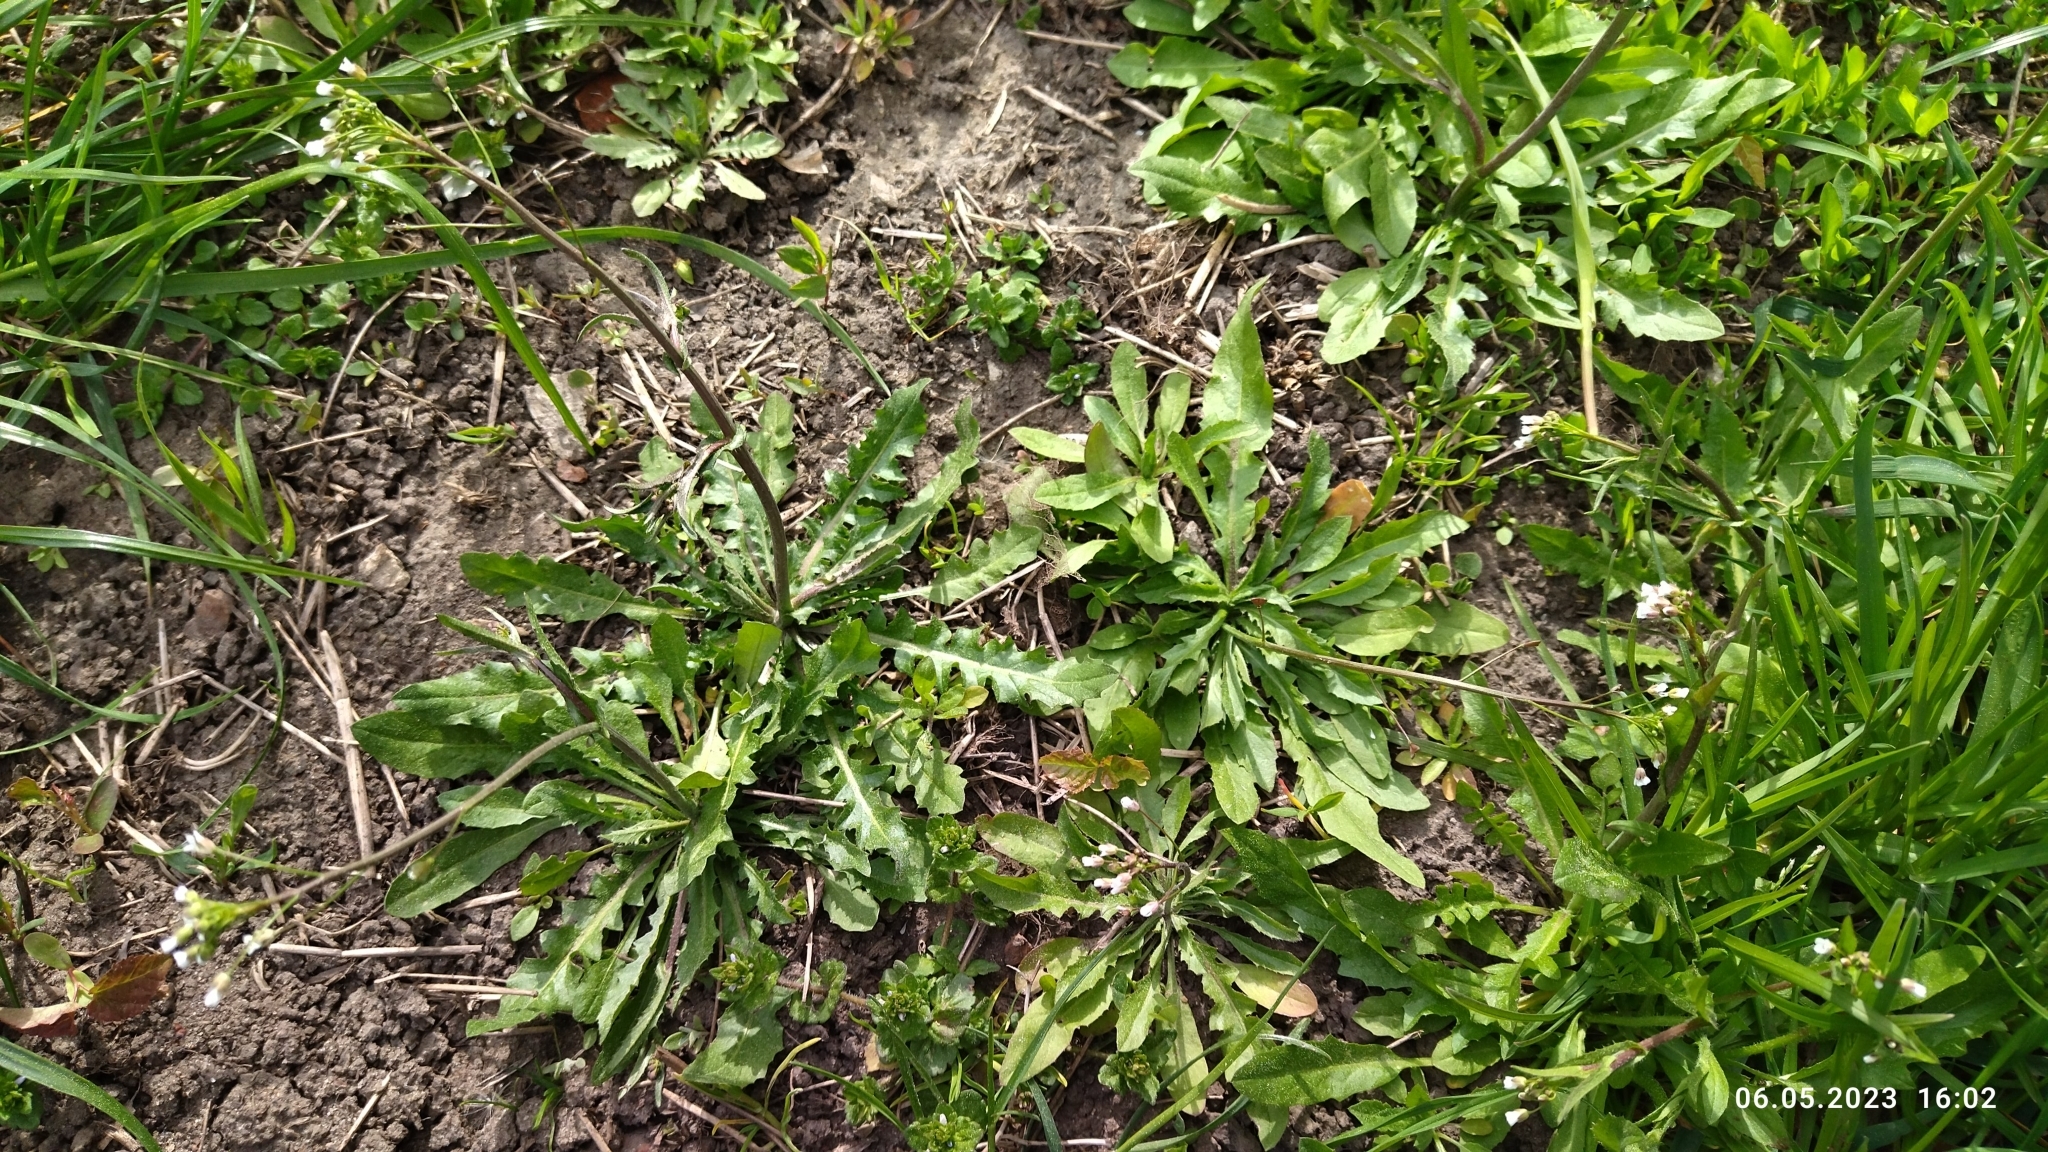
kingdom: Plantae
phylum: Tracheophyta
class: Magnoliopsida
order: Brassicales
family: Brassicaceae
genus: Capsella
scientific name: Capsella bursa-pastoris
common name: Shepherd's purse
